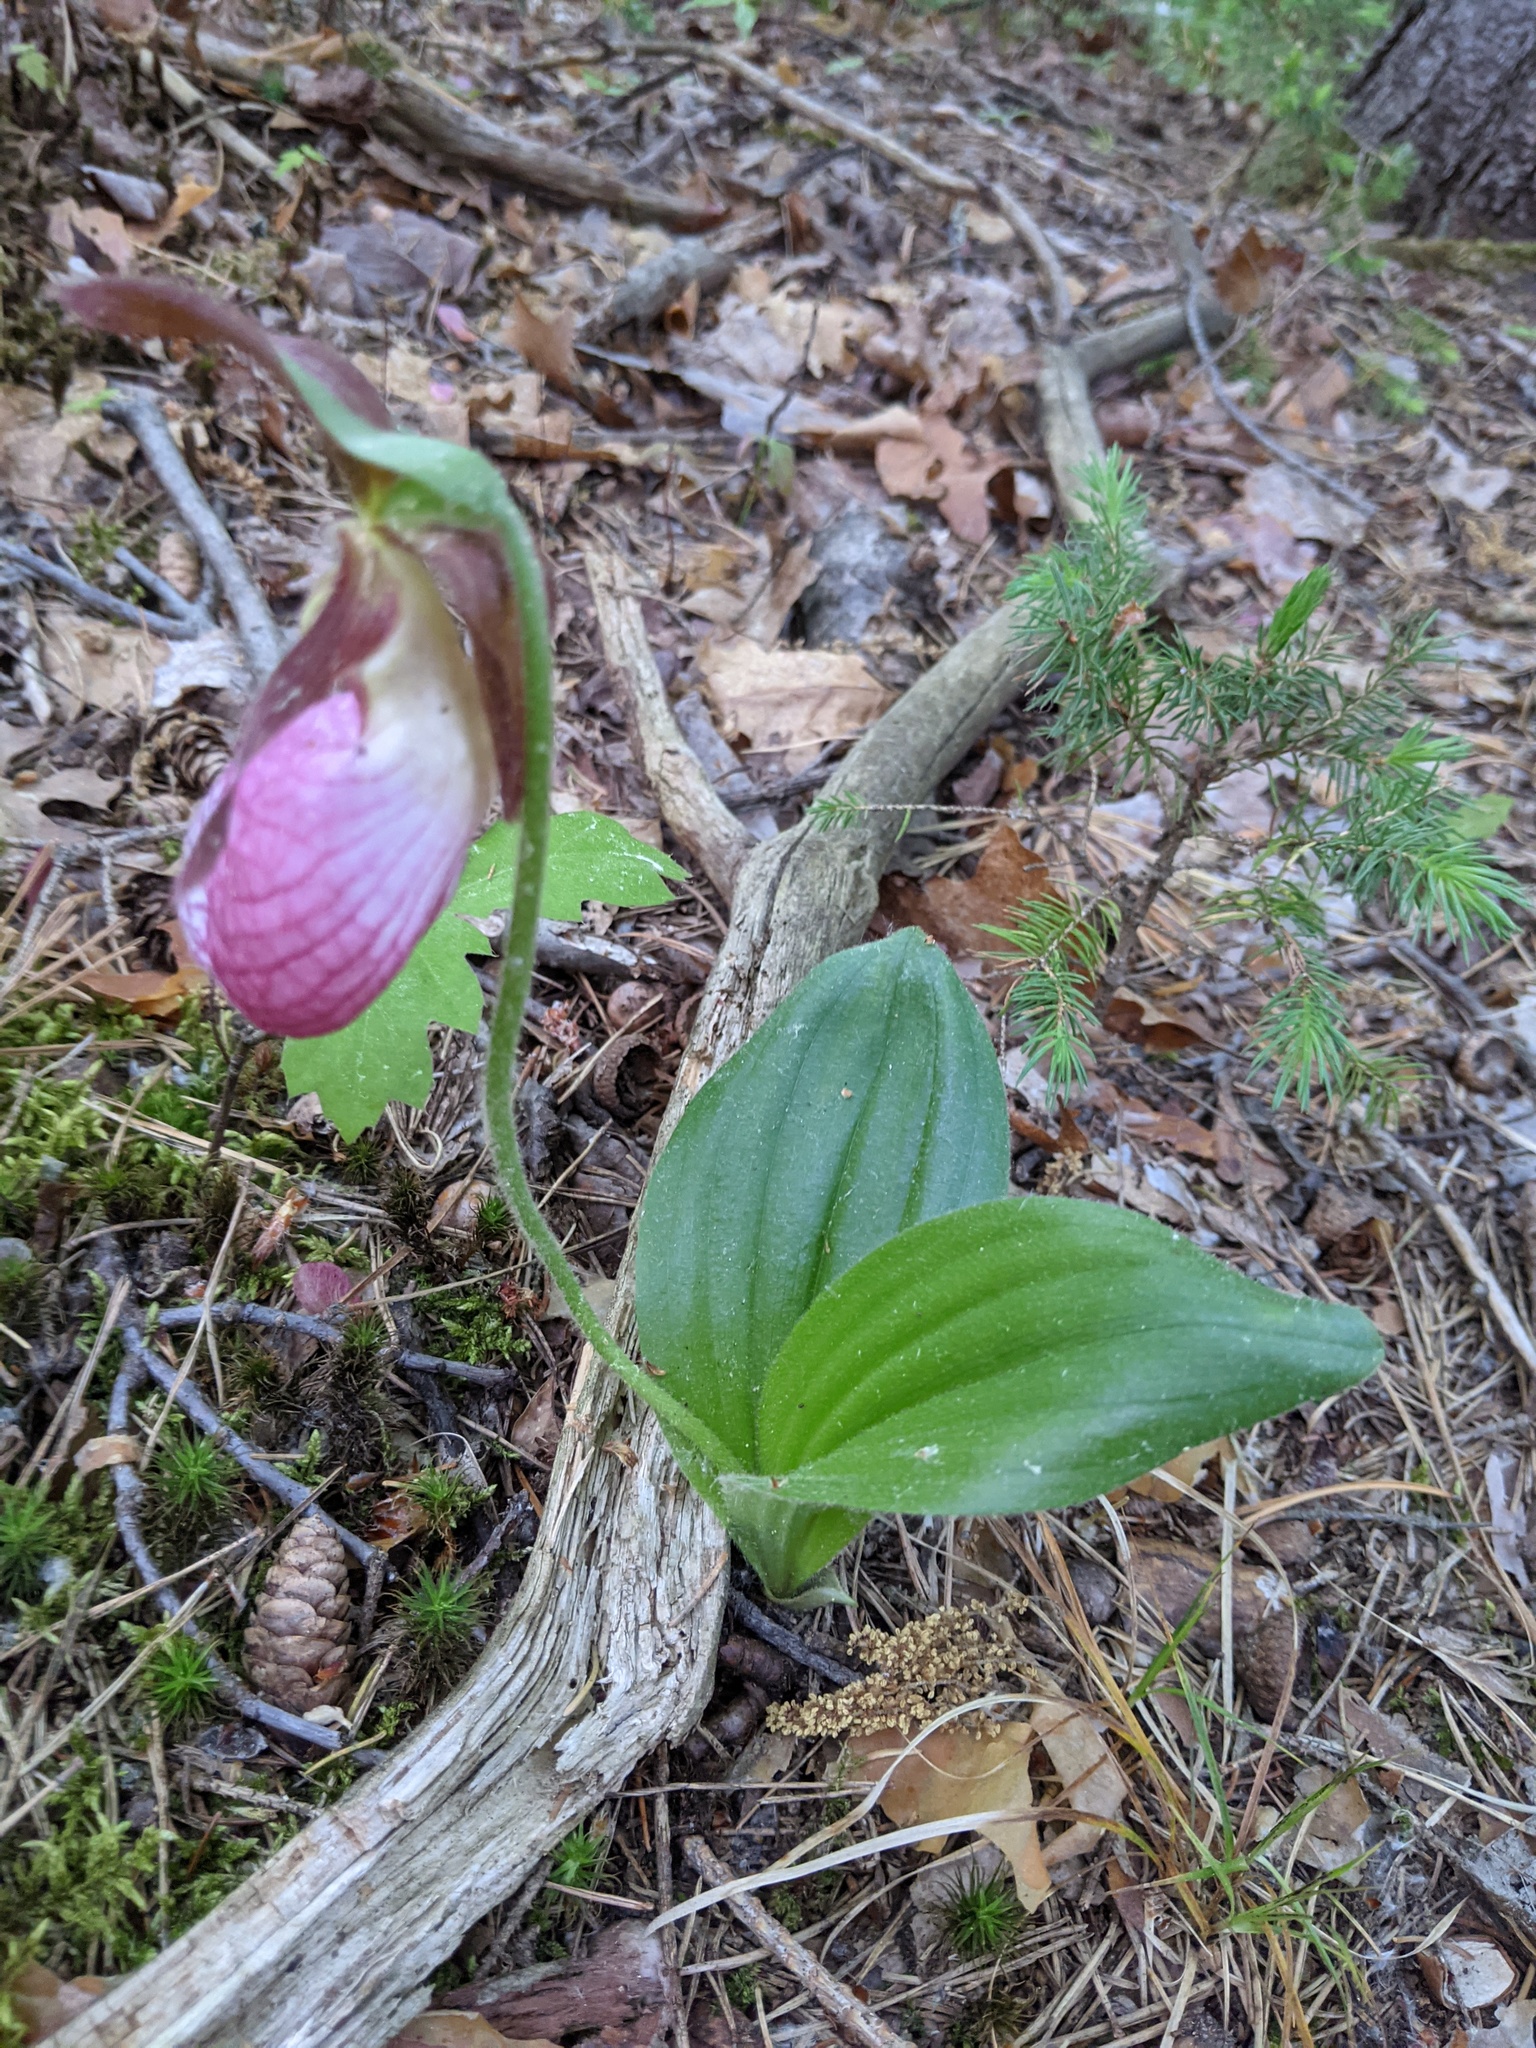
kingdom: Plantae
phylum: Tracheophyta
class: Liliopsida
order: Asparagales
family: Orchidaceae
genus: Cypripedium
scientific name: Cypripedium acaule
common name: Pink lady's-slipper
